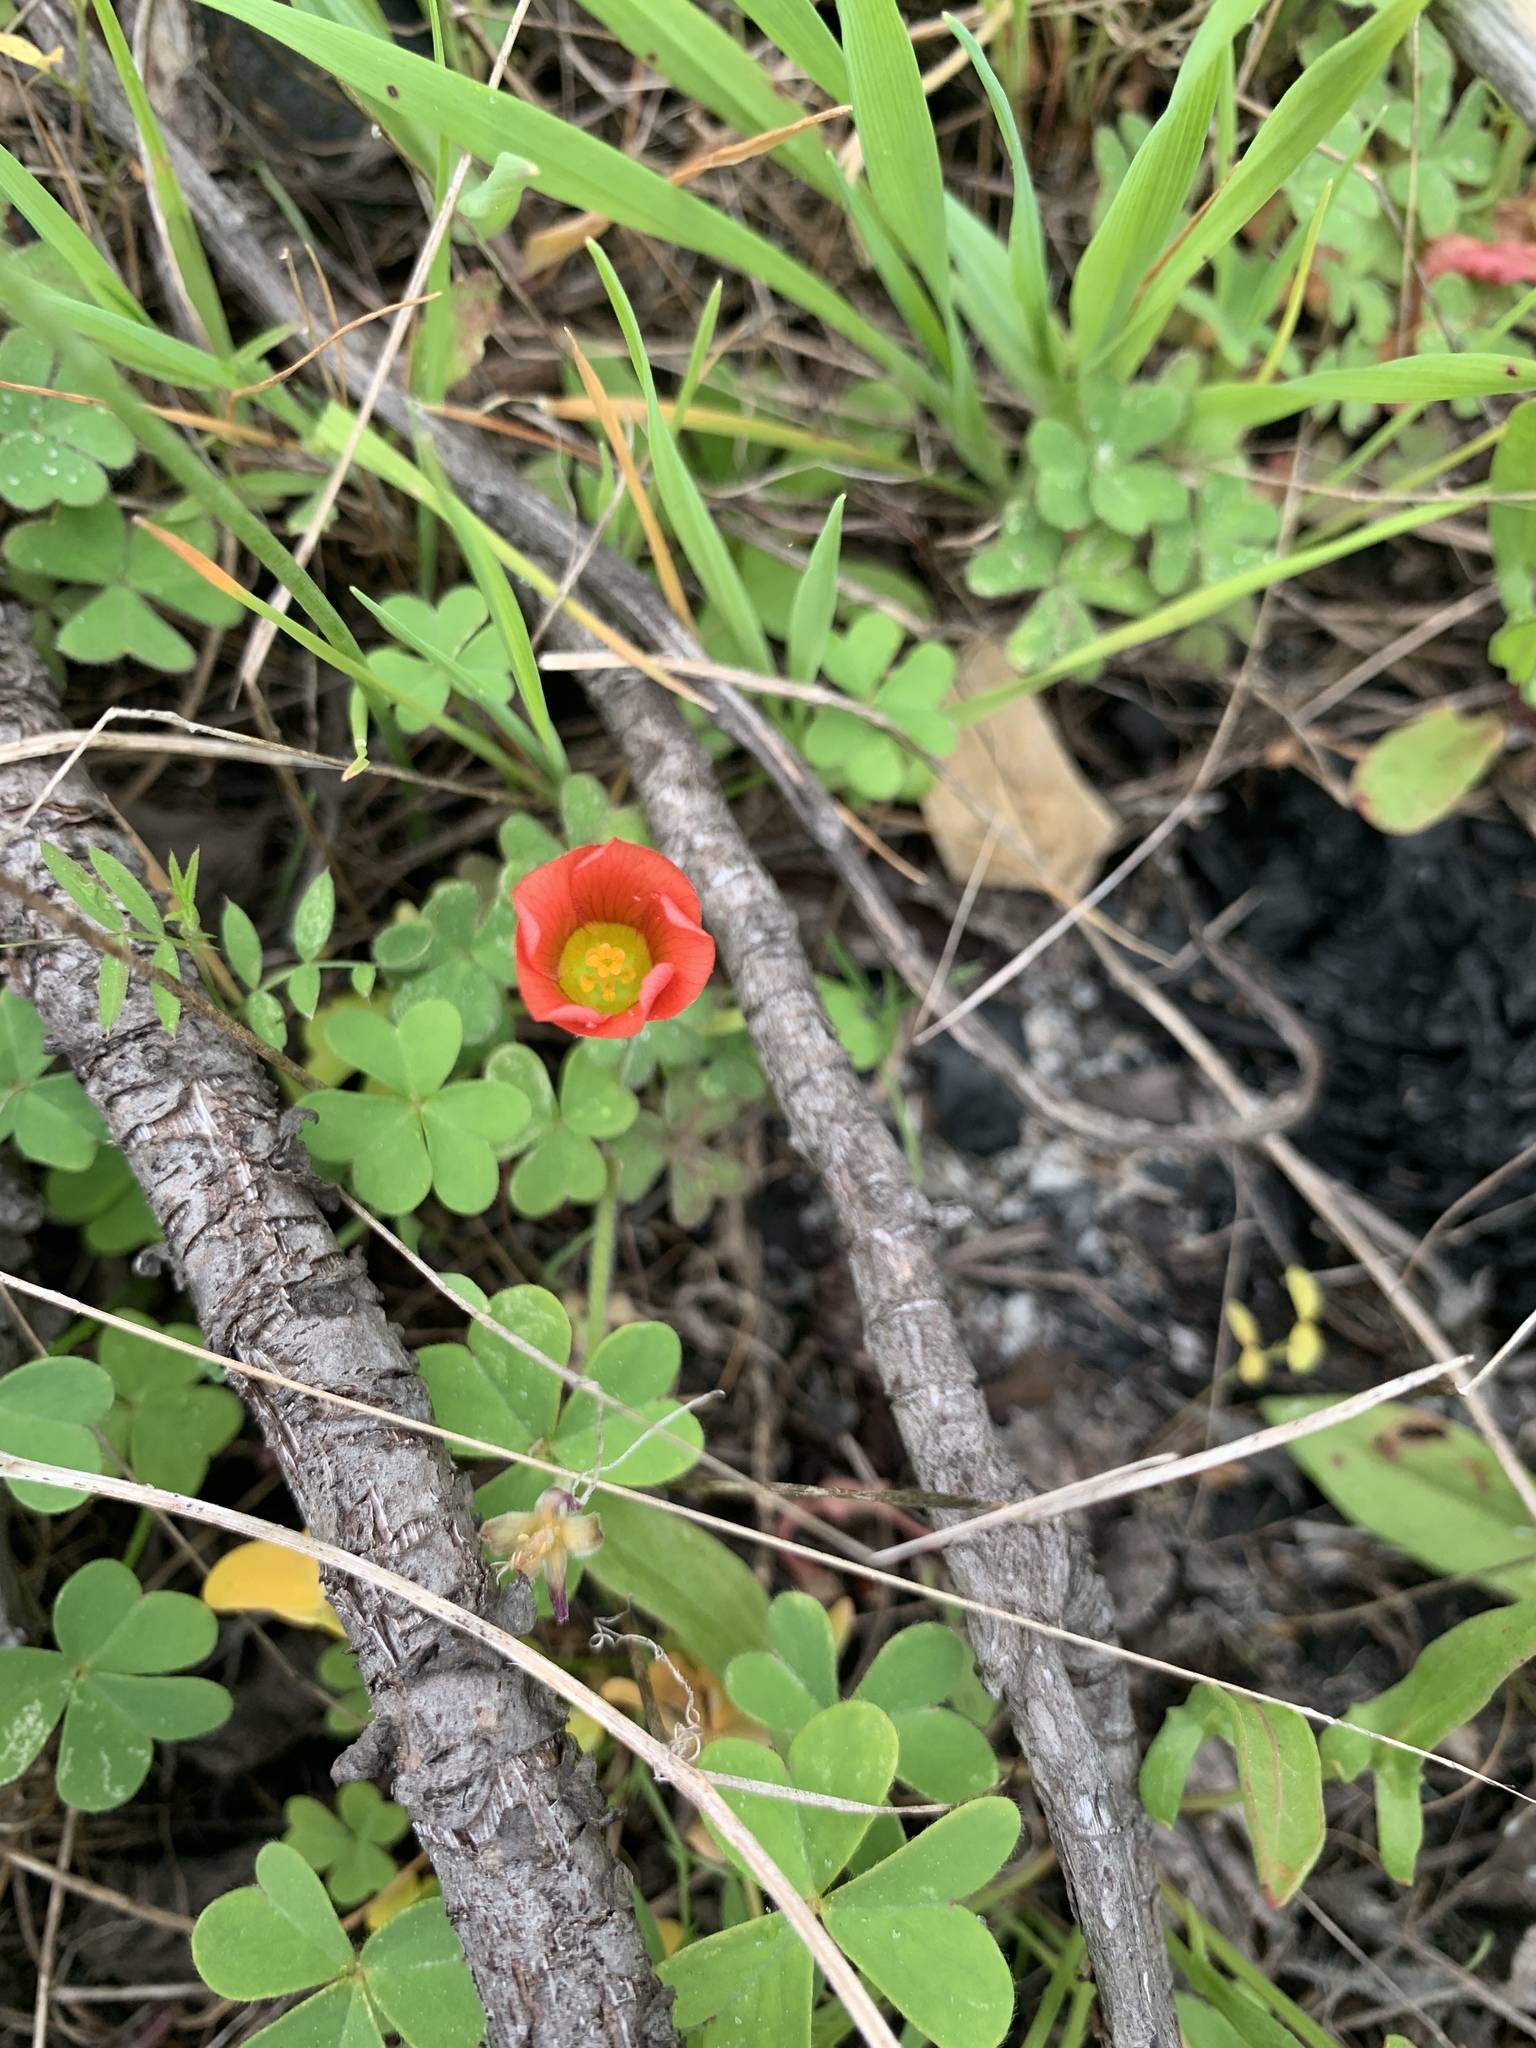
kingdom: Plantae
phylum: Tracheophyta
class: Magnoliopsida
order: Oxalidales
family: Oxalidaceae
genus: Oxalis
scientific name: Oxalis obtusa
